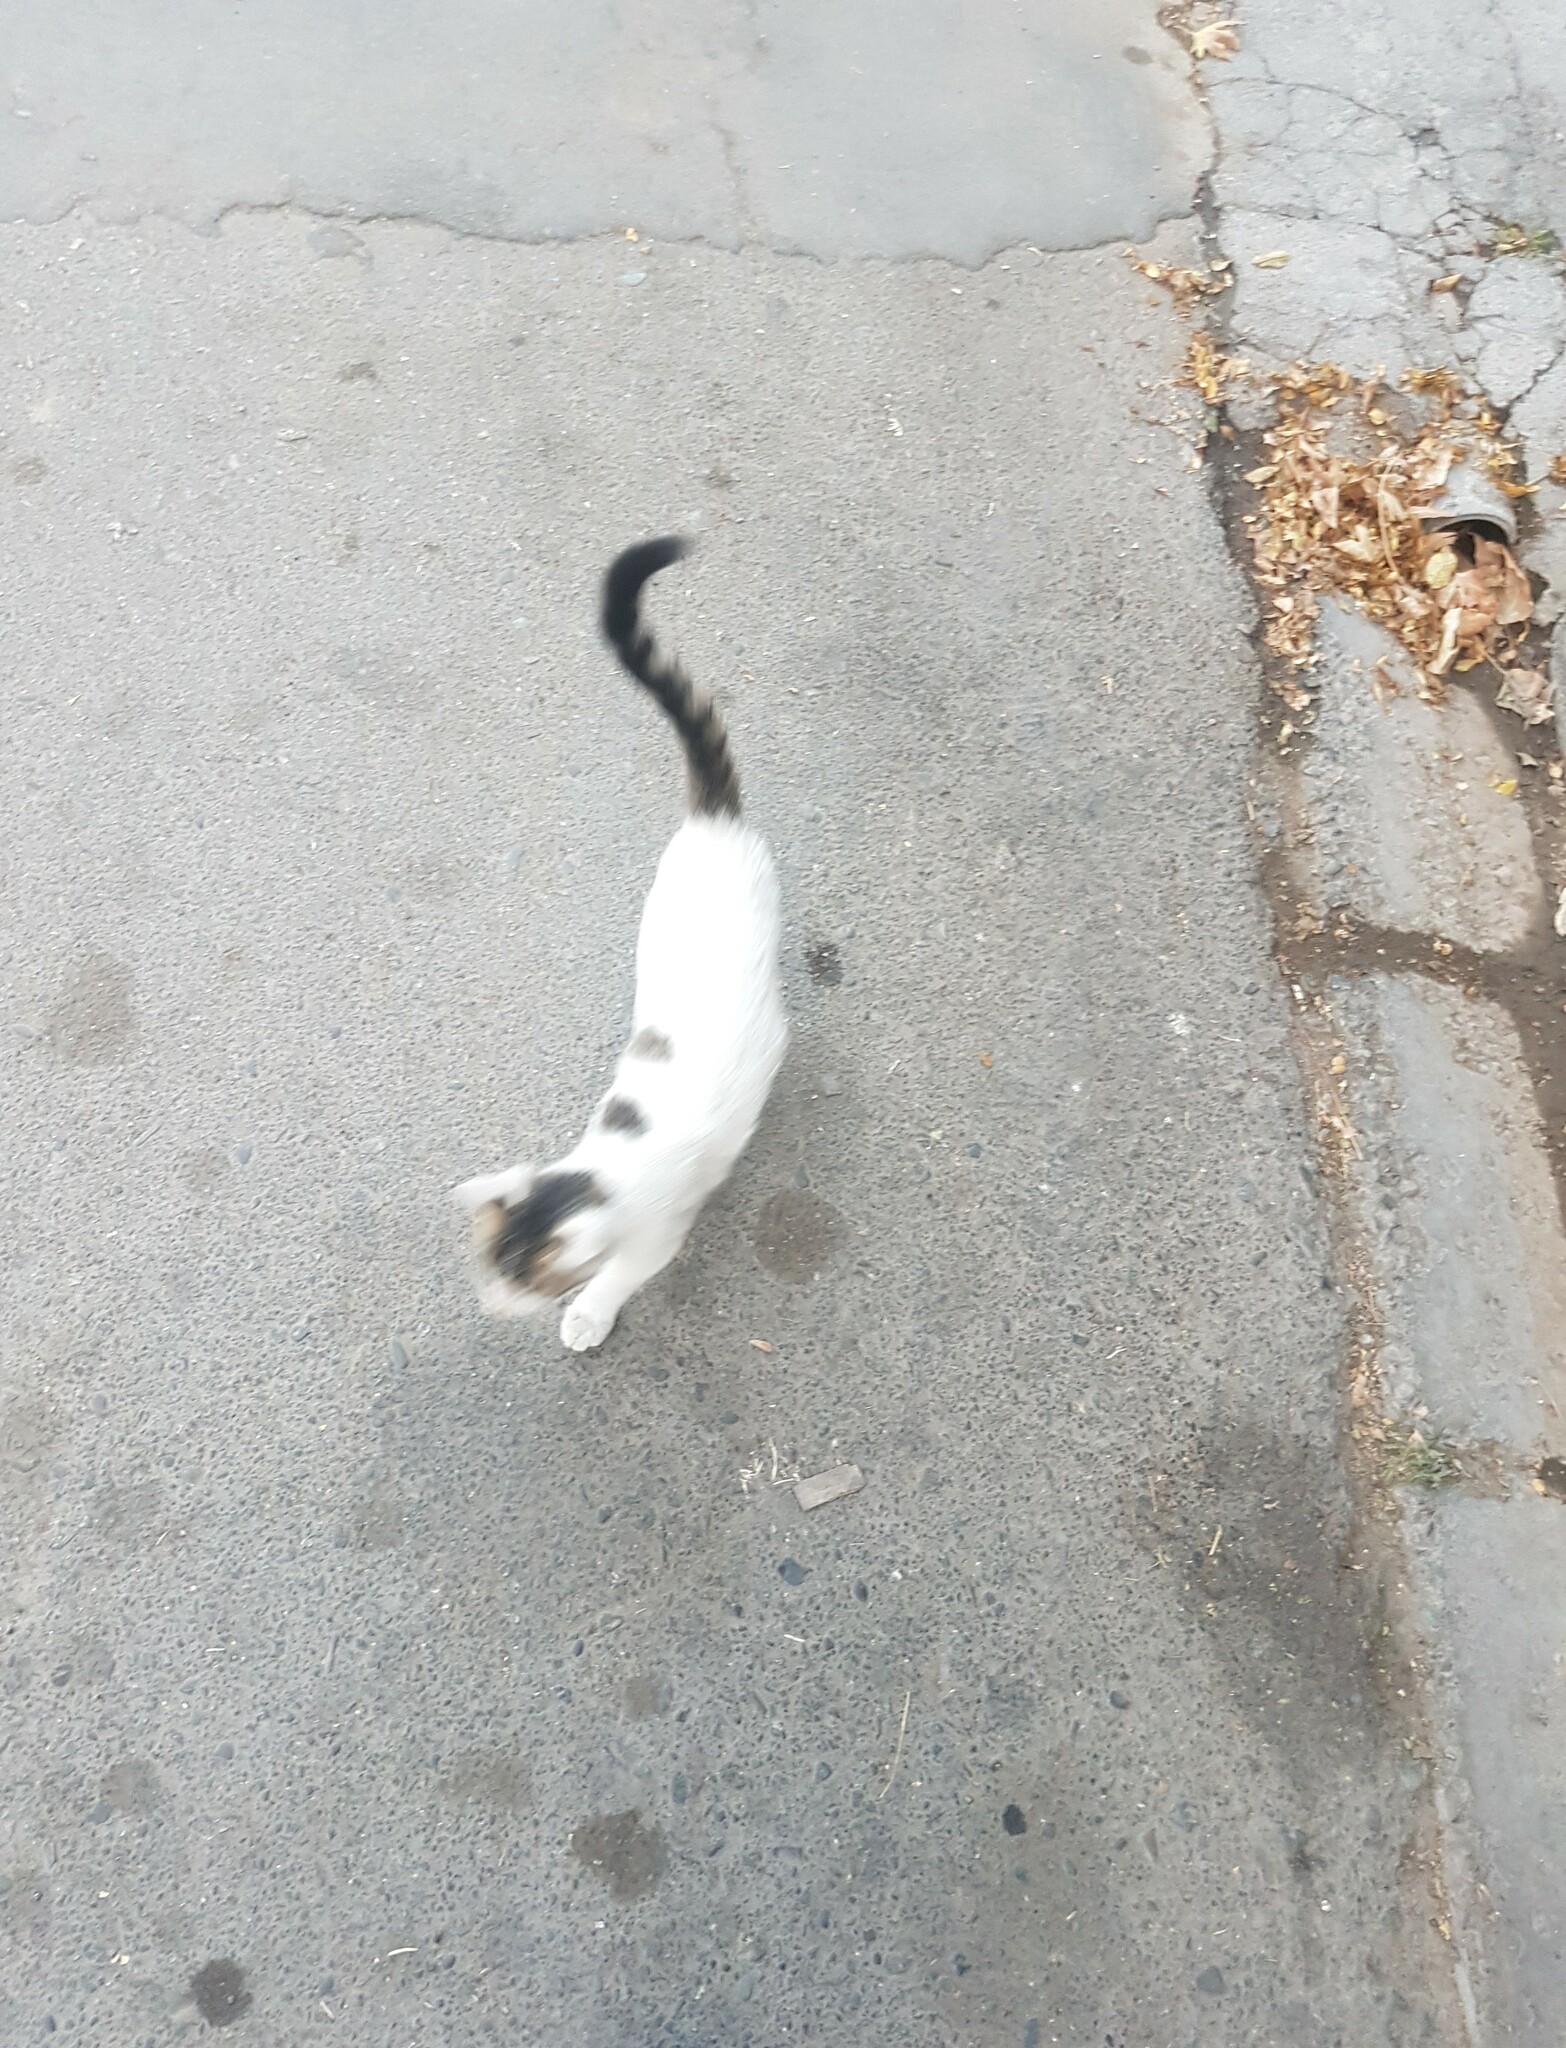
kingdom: Animalia
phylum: Chordata
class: Mammalia
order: Carnivora
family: Felidae
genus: Felis
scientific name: Felis catus
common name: Domestic cat
